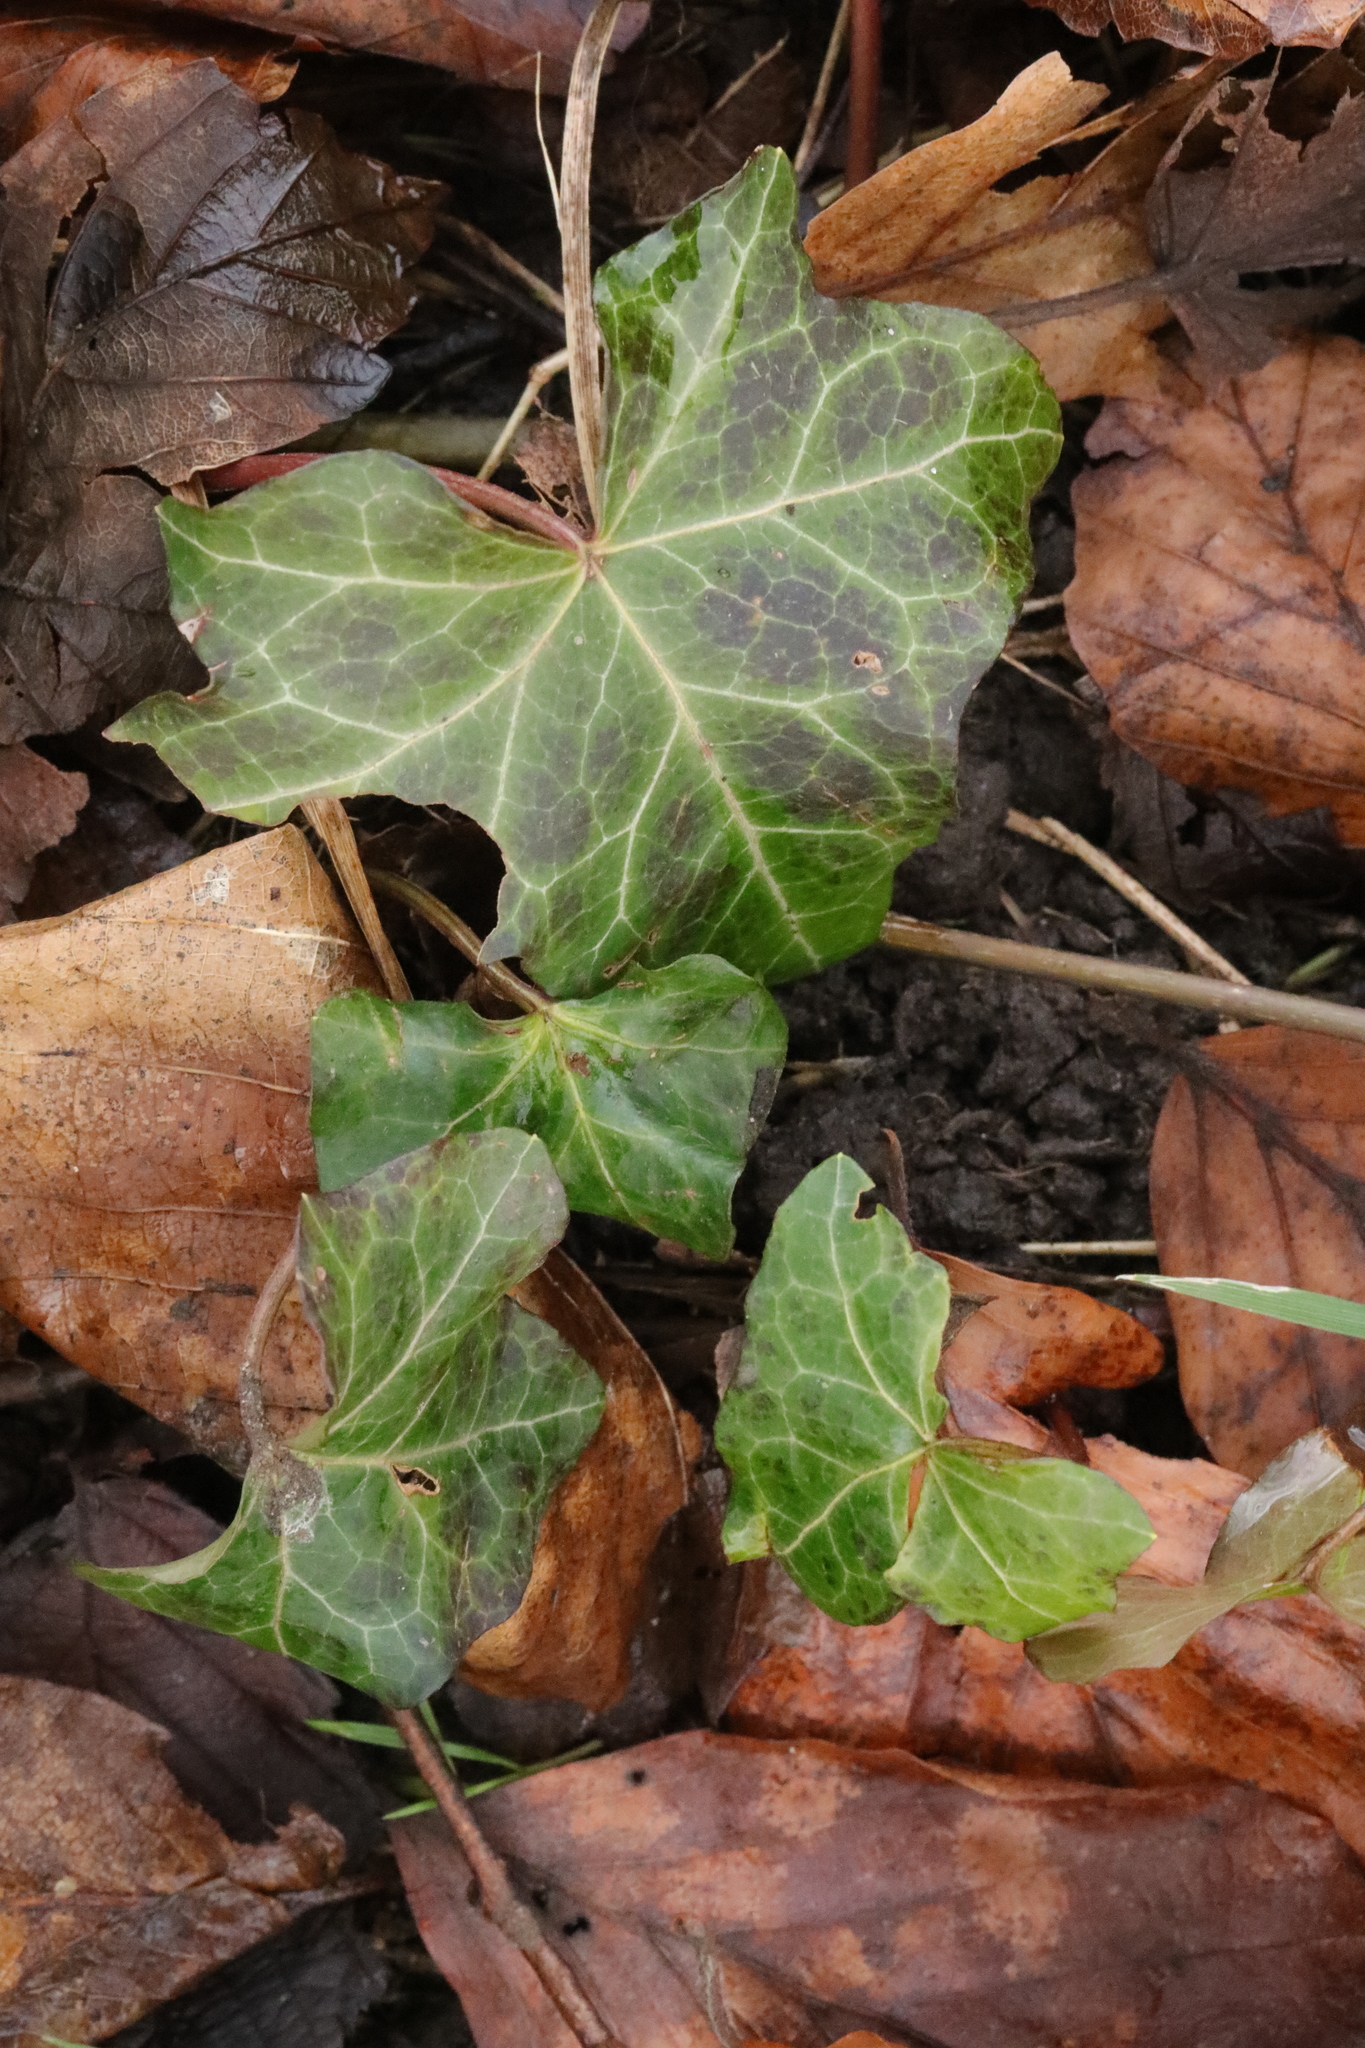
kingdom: Plantae
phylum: Tracheophyta
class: Magnoliopsida
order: Apiales
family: Araliaceae
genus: Hedera
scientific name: Hedera helix
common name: Ivy
